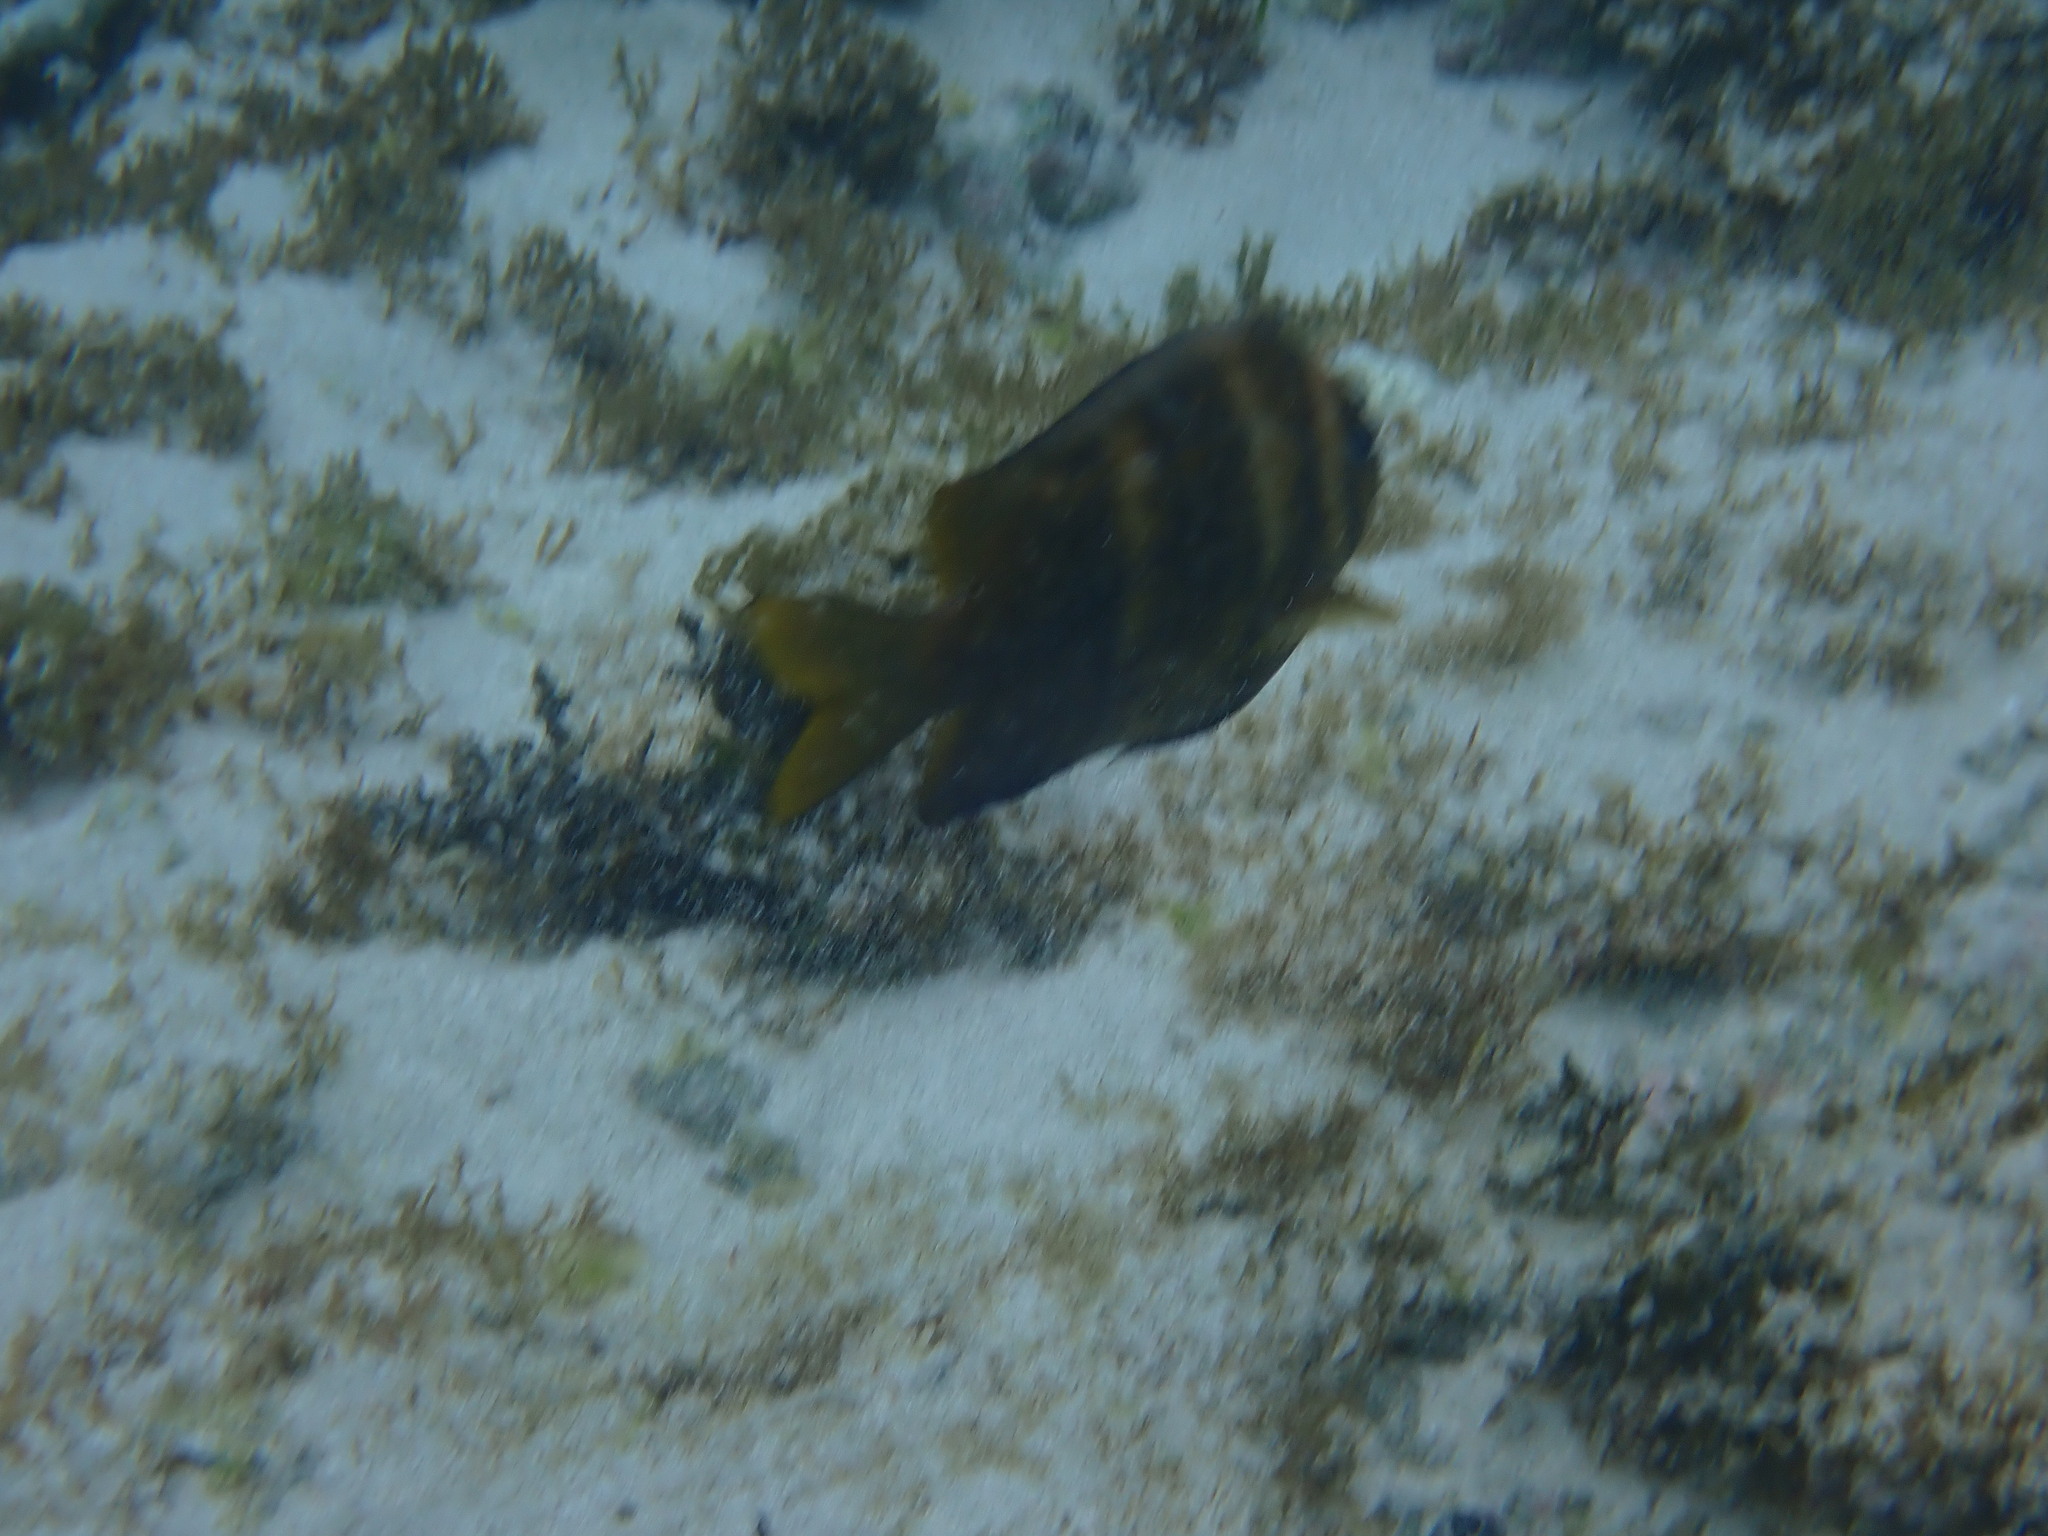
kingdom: Animalia
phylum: Chordata
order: Perciformes
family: Pomacentridae
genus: Parma
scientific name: Parma polylepis
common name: Banded parma
